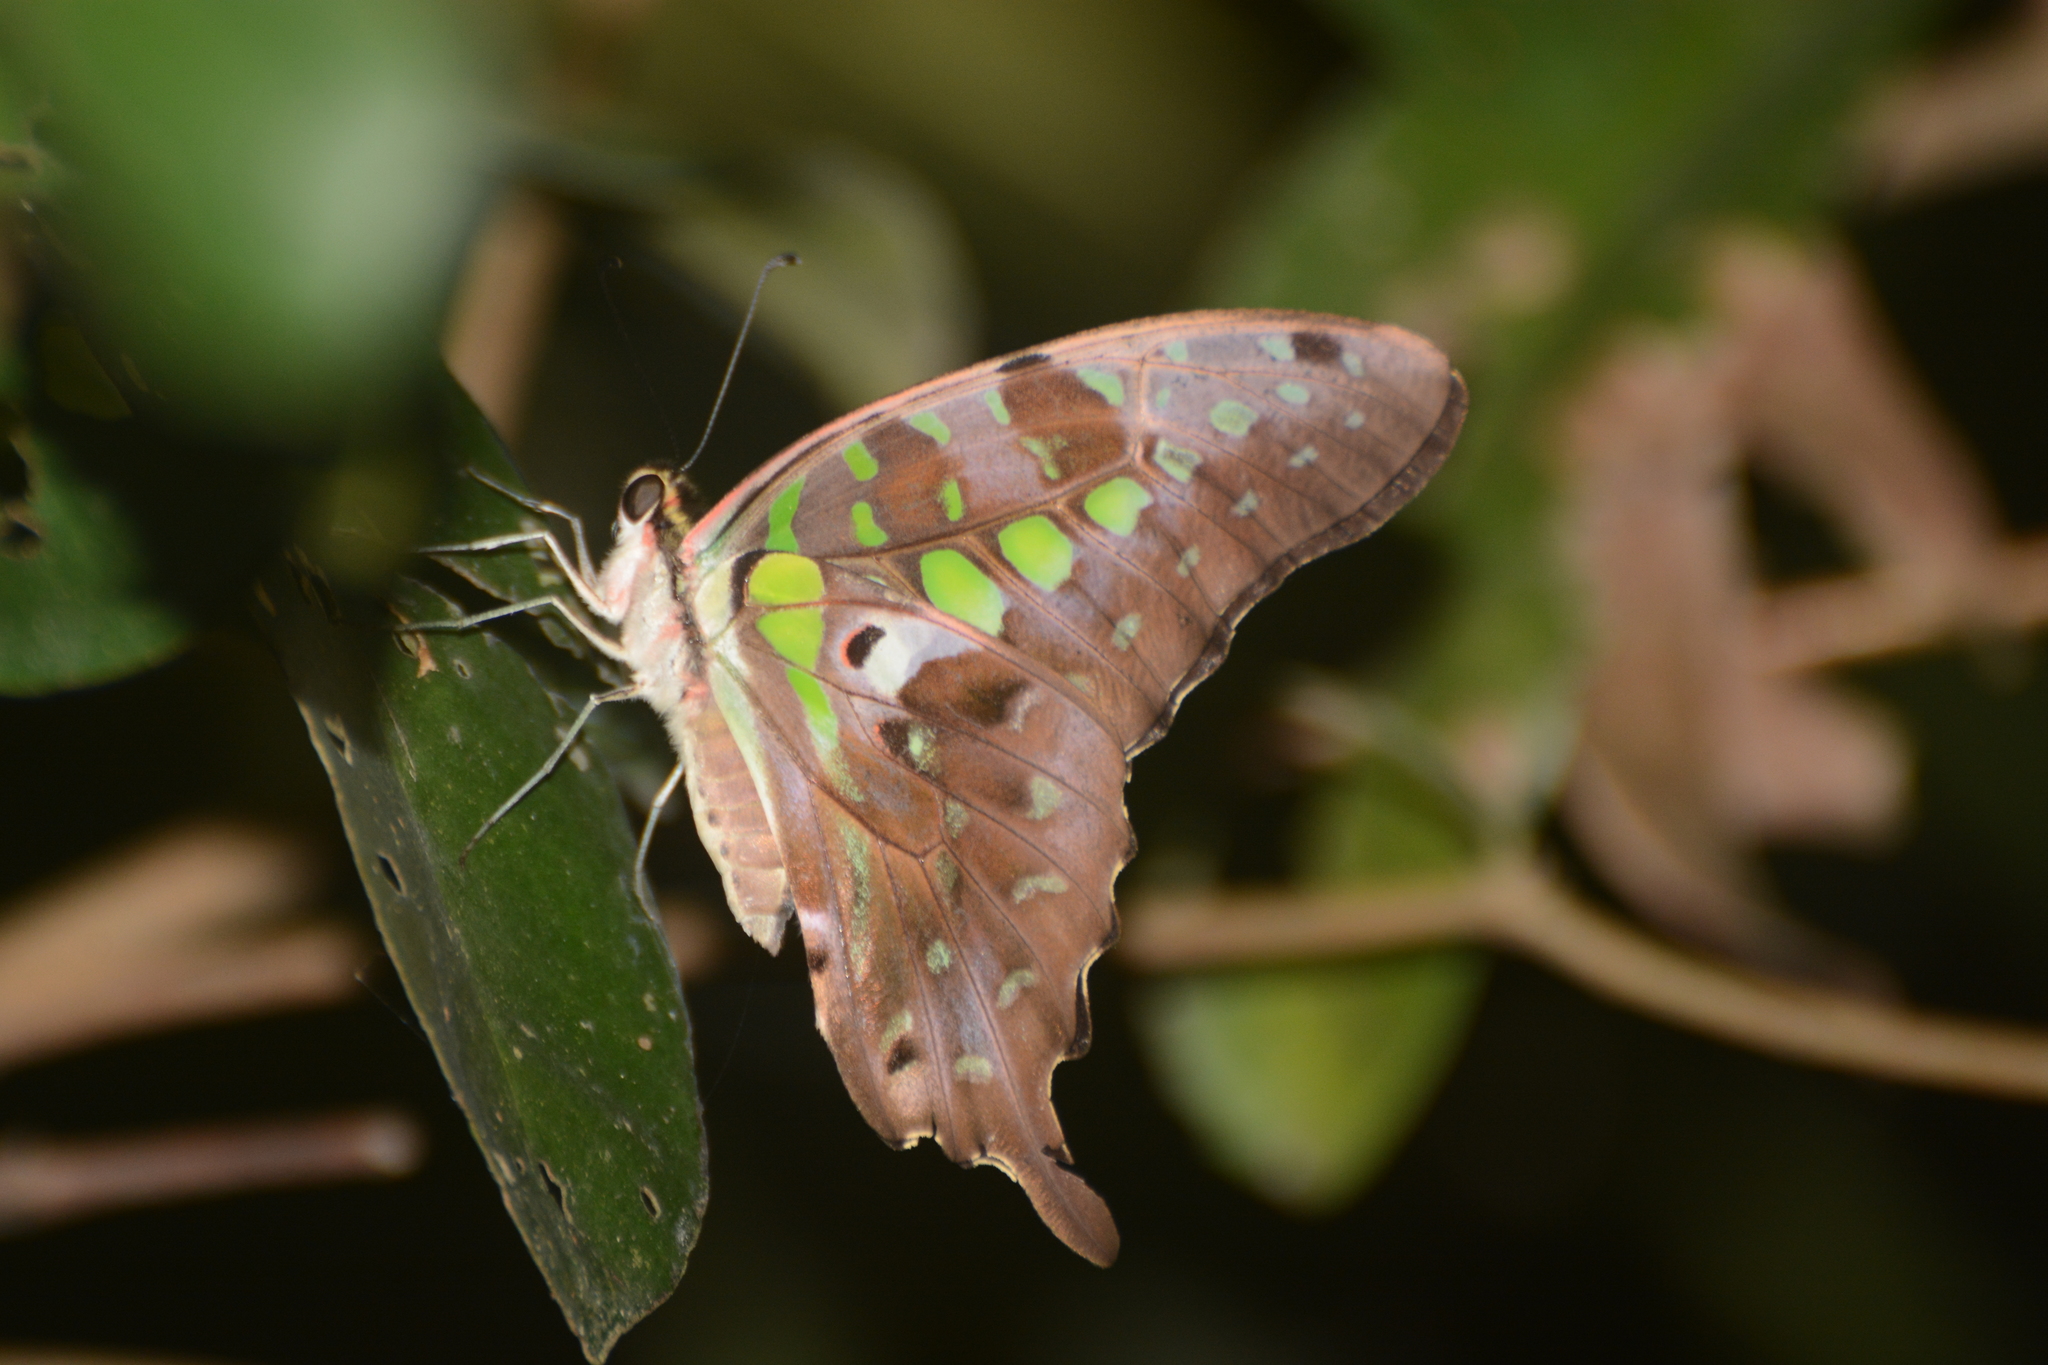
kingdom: Animalia
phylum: Arthropoda
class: Insecta
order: Lepidoptera
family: Papilionidae
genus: Graphium
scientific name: Graphium agamemnon
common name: Tailed jay
